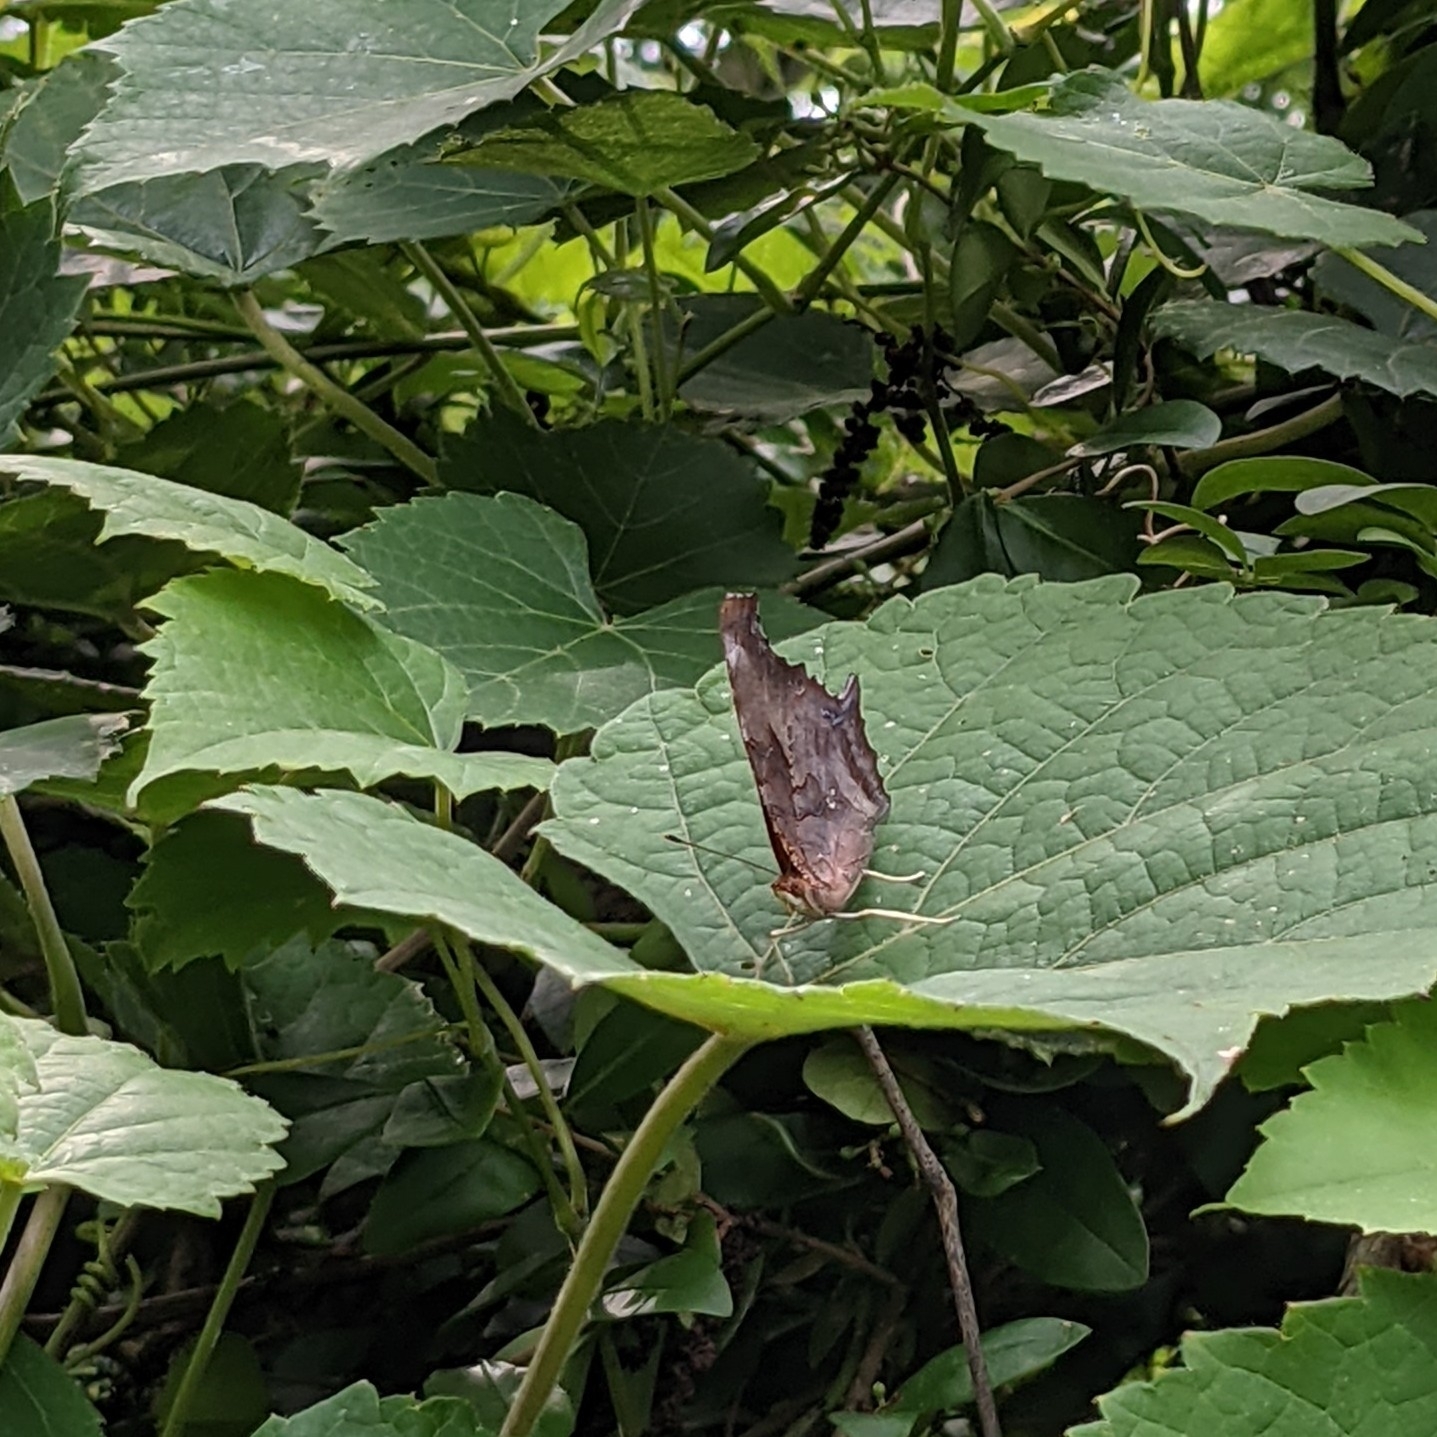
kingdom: Animalia
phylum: Arthropoda
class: Insecta
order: Lepidoptera
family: Nymphalidae
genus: Polygonia
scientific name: Polygonia interrogationis
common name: Question mark
